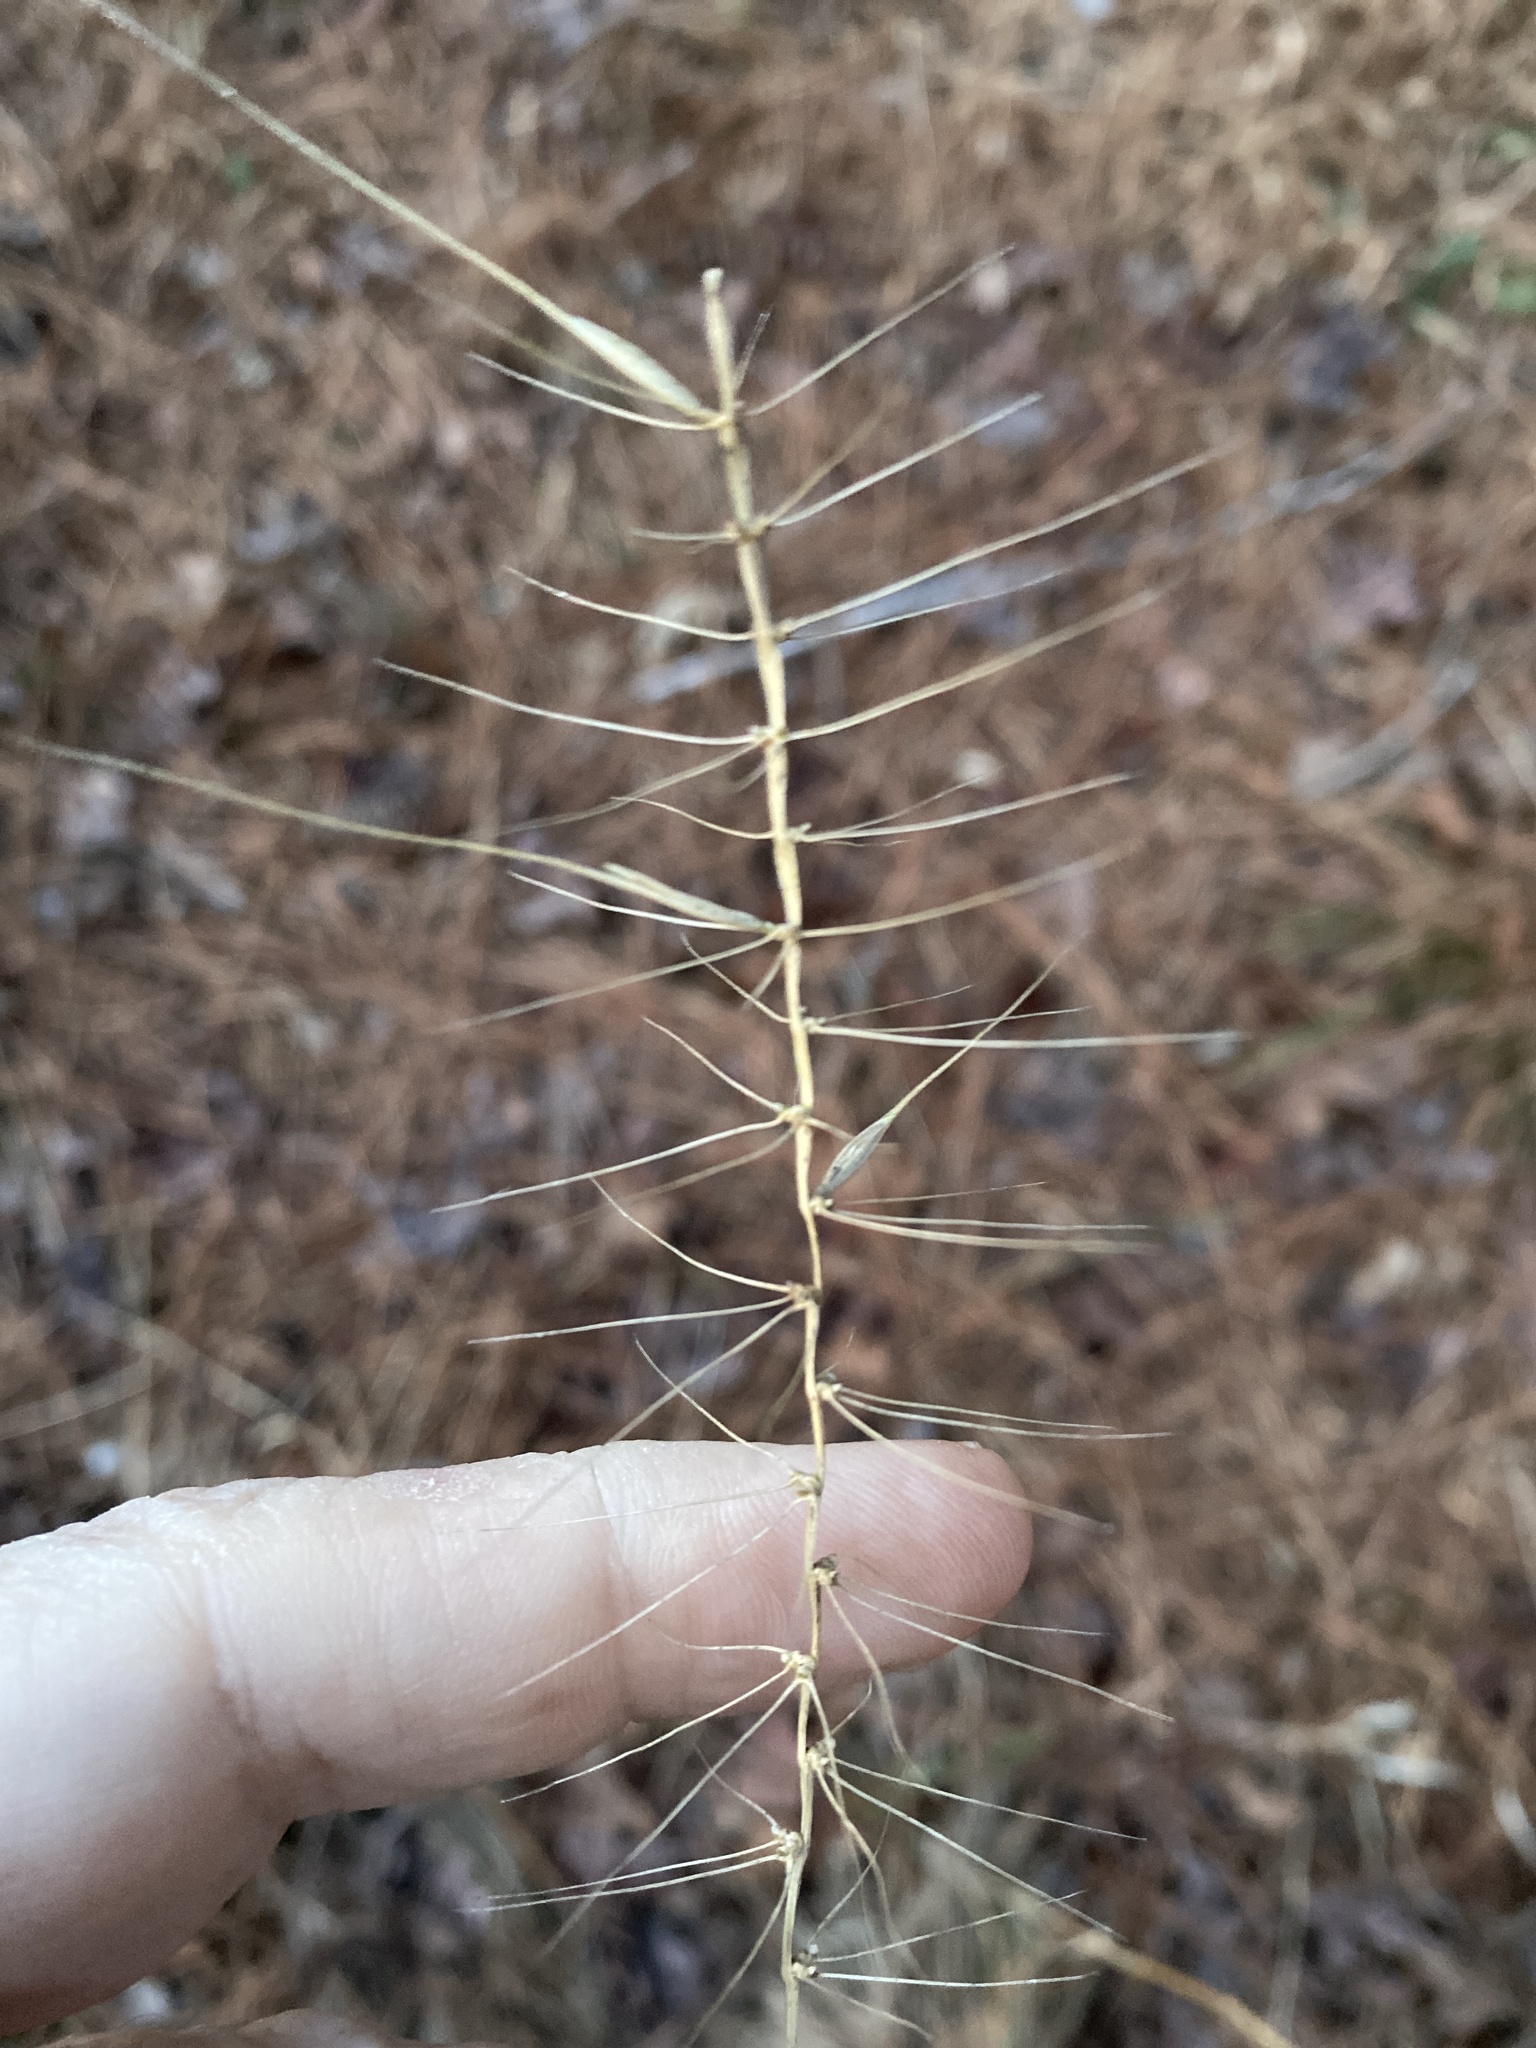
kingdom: Plantae
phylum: Tracheophyta
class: Liliopsida
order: Poales
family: Poaceae
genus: Elymus
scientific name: Elymus hystrix
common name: Bottlebrush grass
